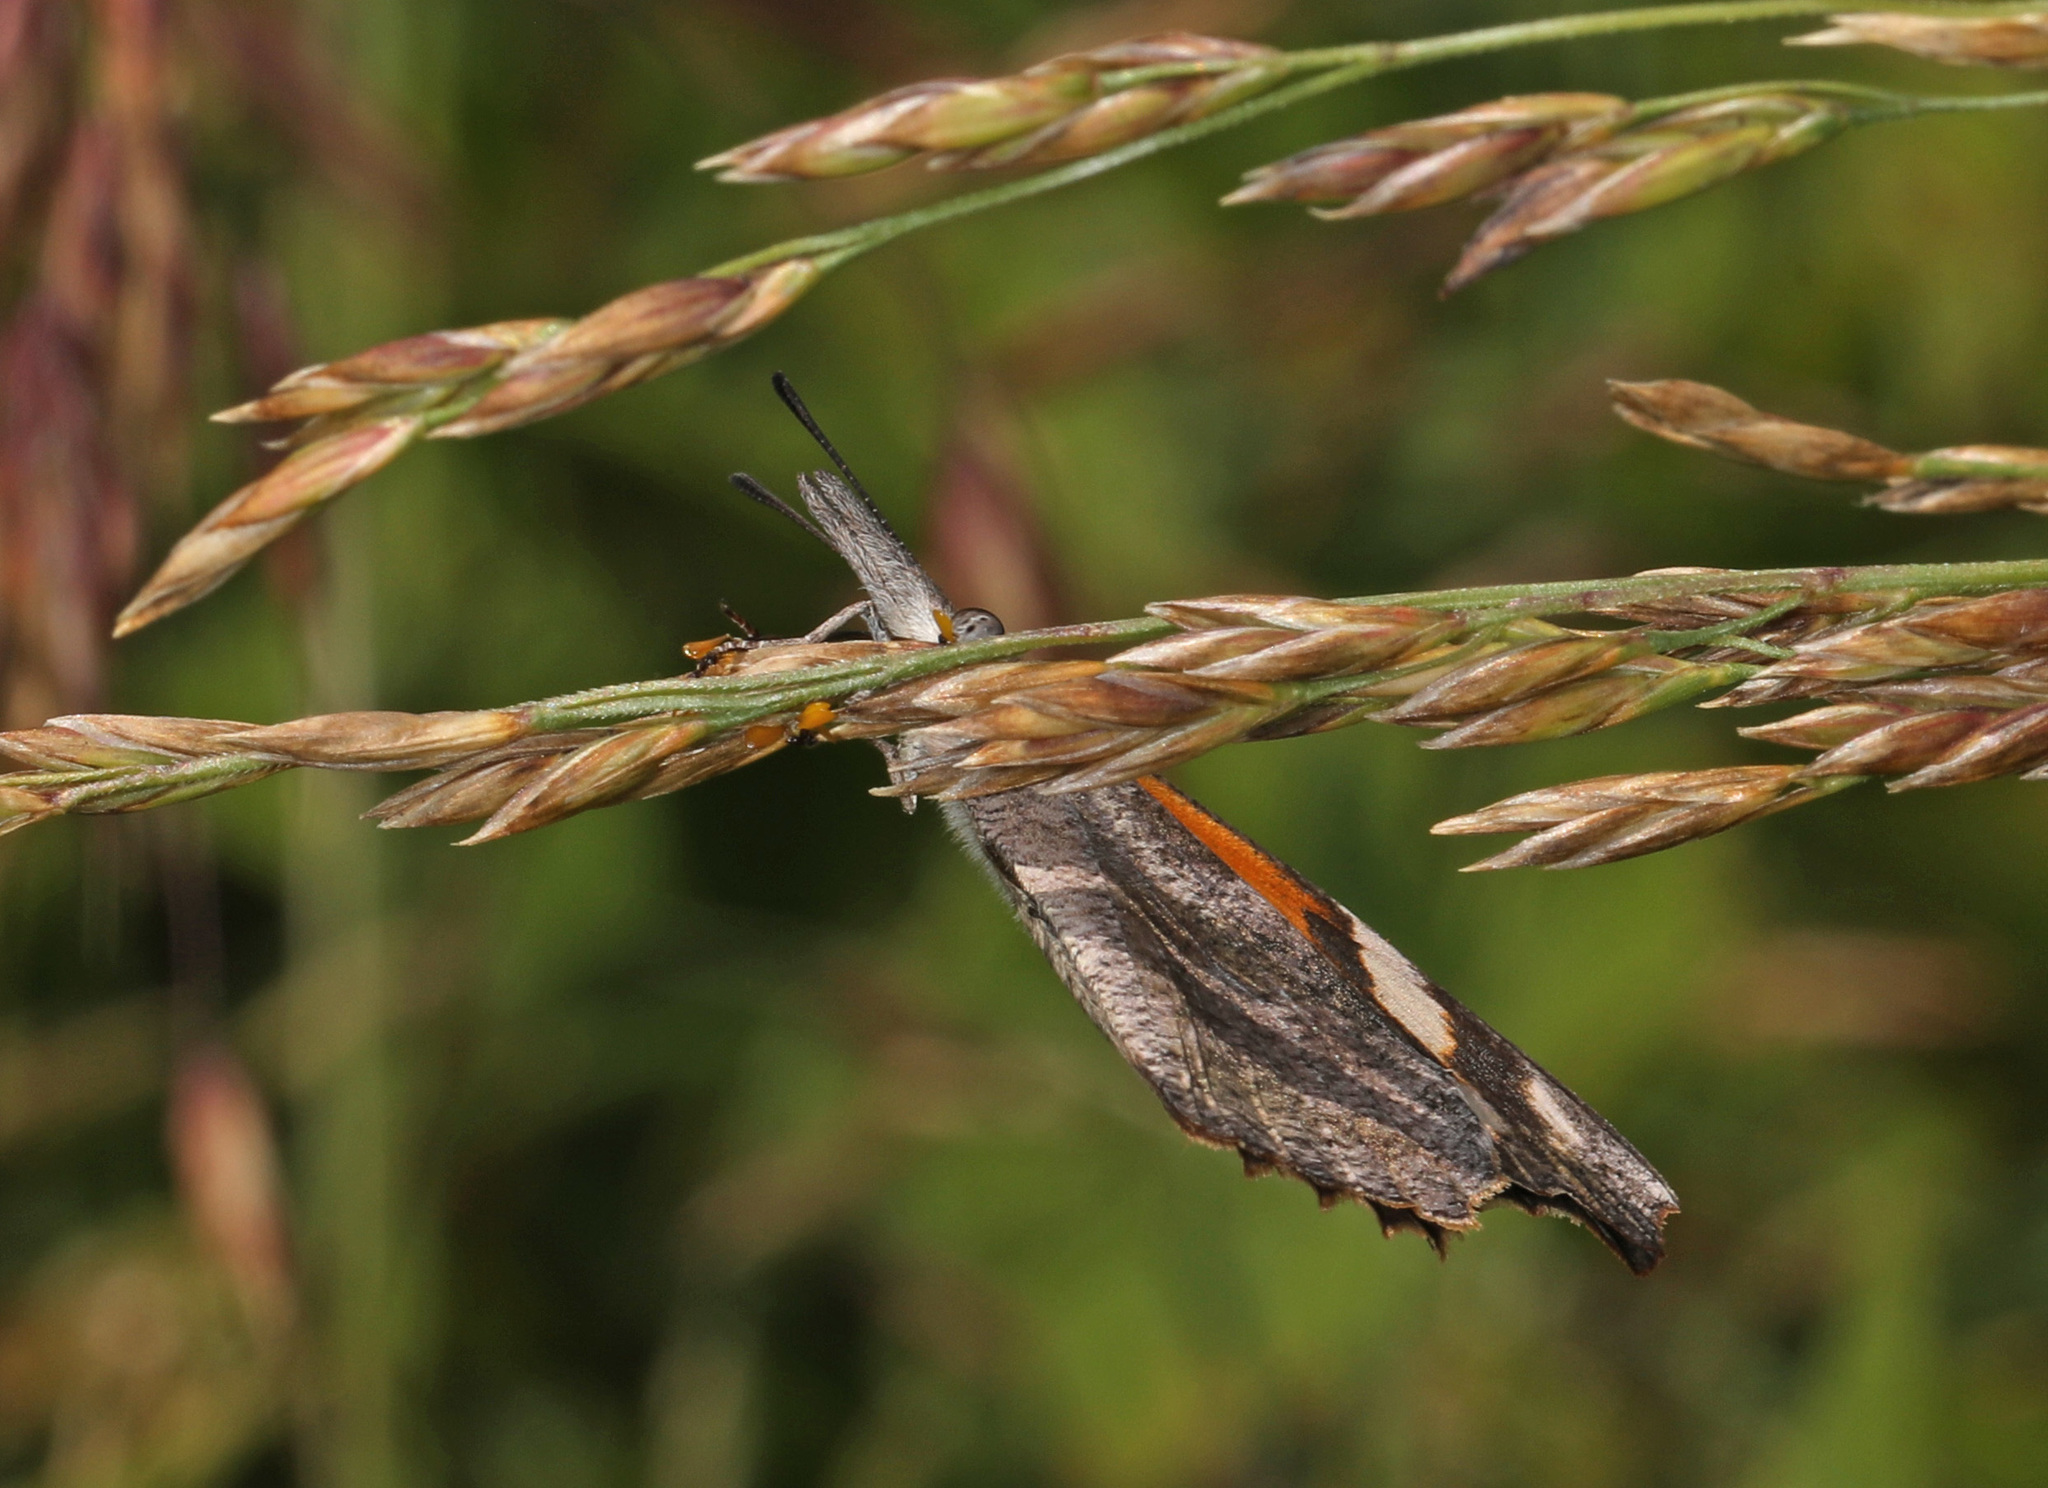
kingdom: Animalia
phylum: Arthropoda
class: Insecta
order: Lepidoptera
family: Nymphalidae
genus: Libytheana
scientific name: Libytheana carinenta
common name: American snout
